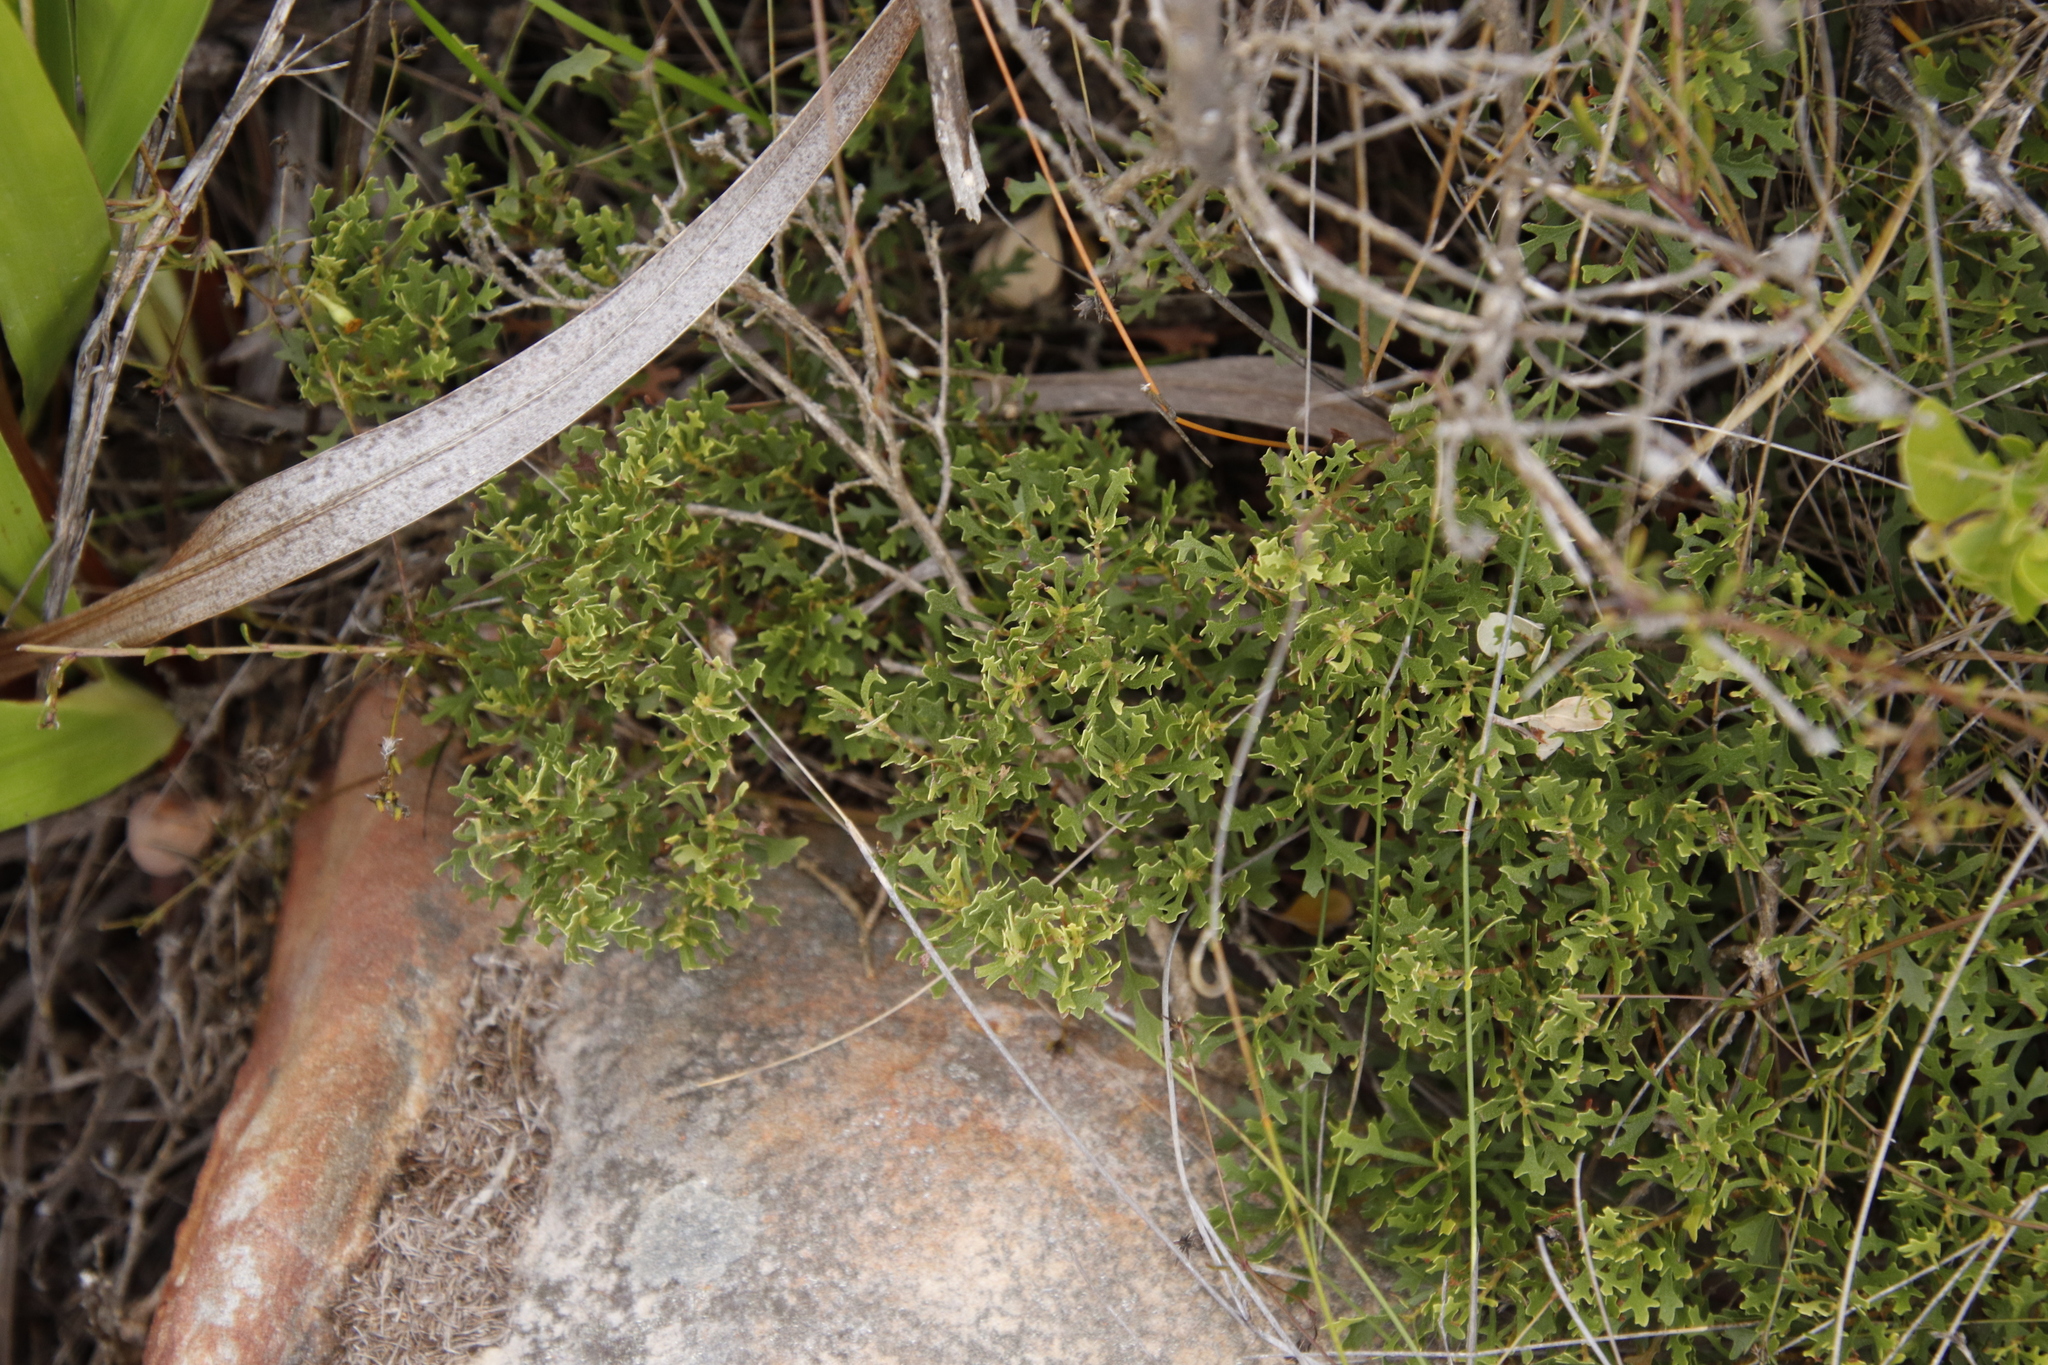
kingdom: Plantae
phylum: Tracheophyta
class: Magnoliopsida
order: Fagales
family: Myricaceae
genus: Morella
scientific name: Morella quercifolia
